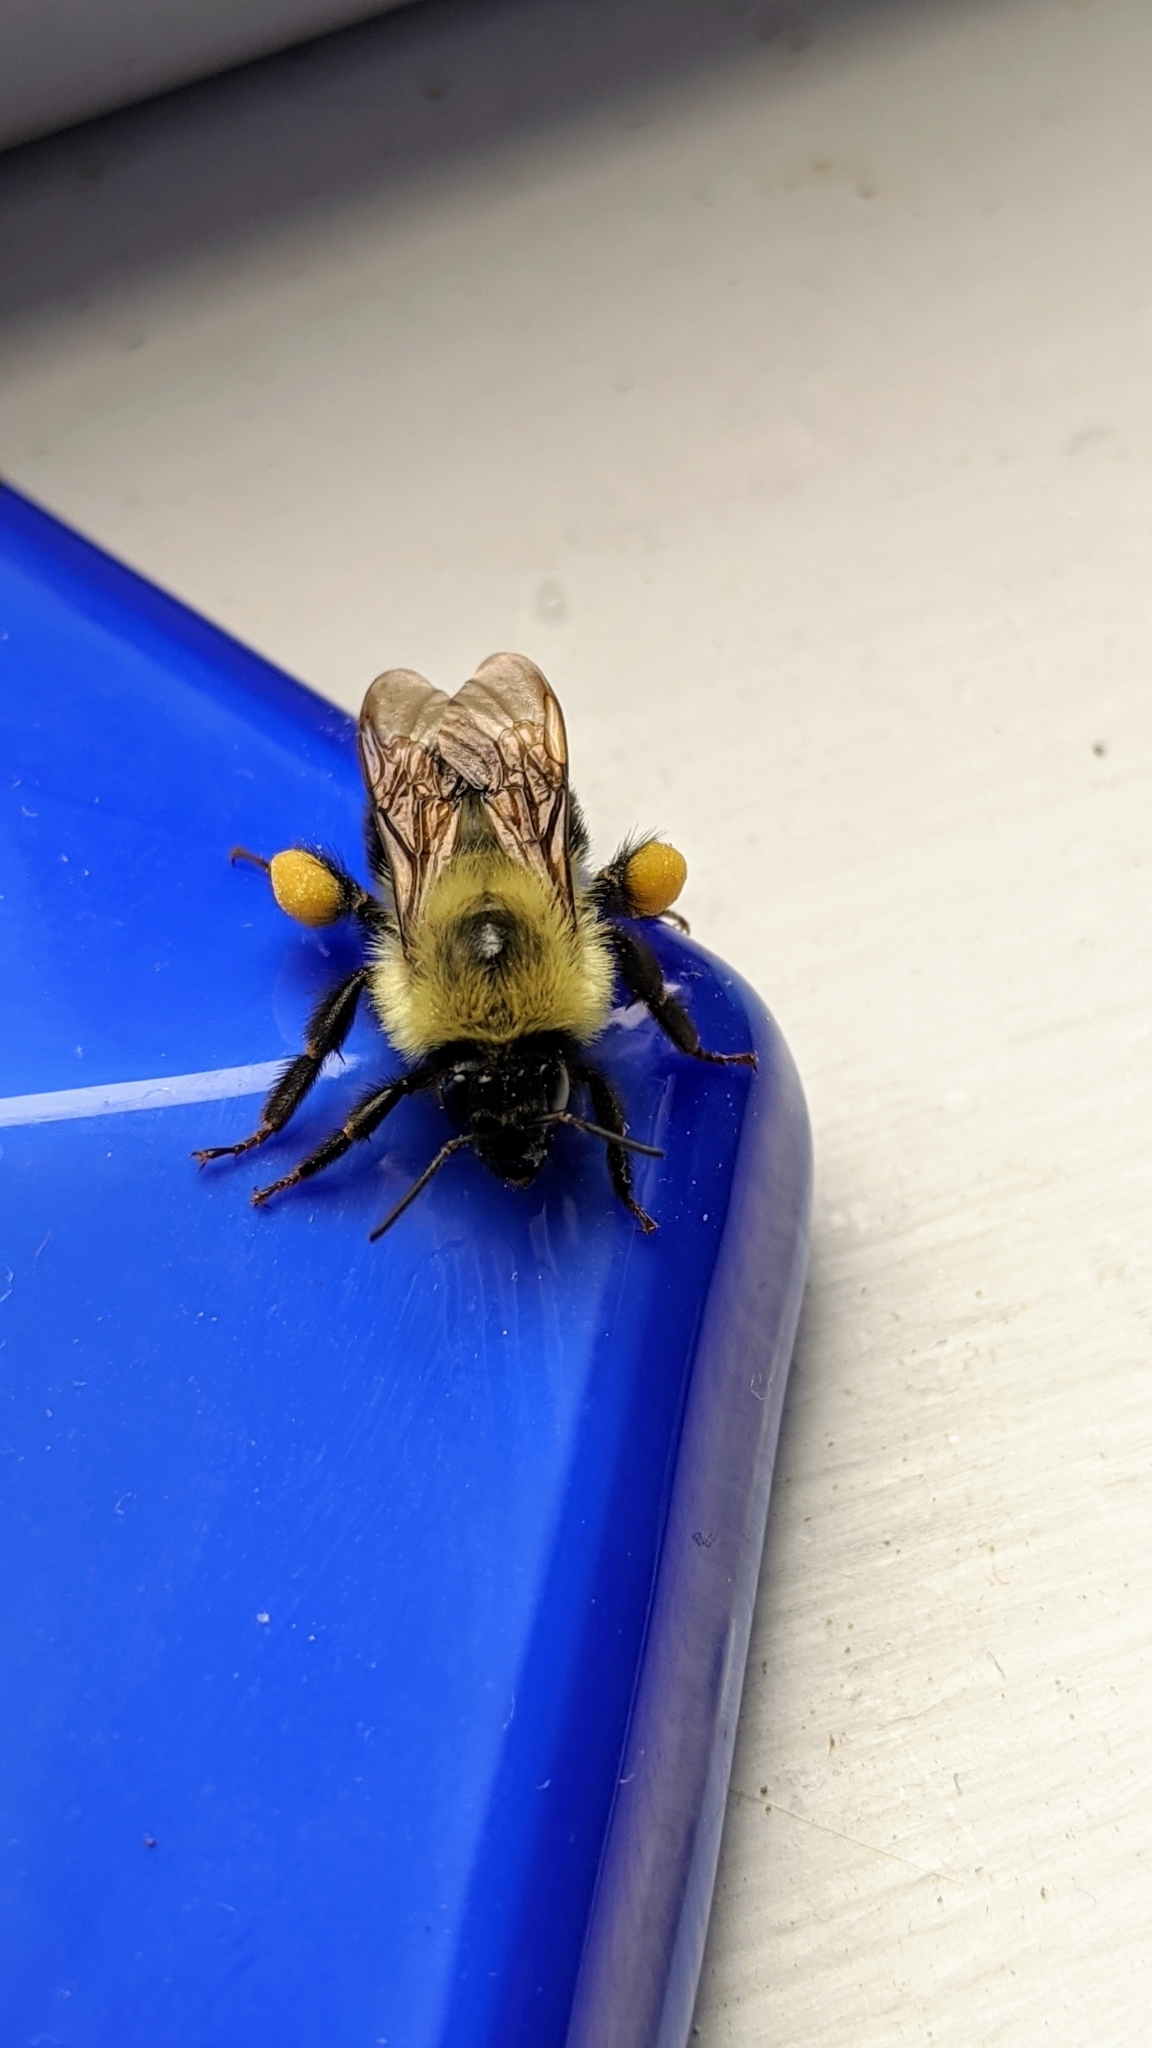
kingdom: Animalia
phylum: Arthropoda
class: Insecta
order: Hymenoptera
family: Apidae
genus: Bombus
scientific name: Bombus bimaculatus
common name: Two-spotted bumble bee
